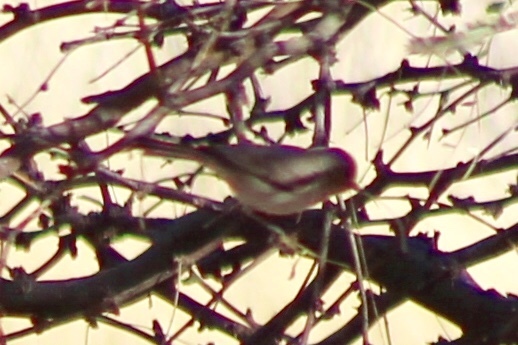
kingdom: Animalia
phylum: Chordata
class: Aves
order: Passeriformes
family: Remizidae
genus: Auriparus
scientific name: Auriparus flaviceps
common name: Verdin
